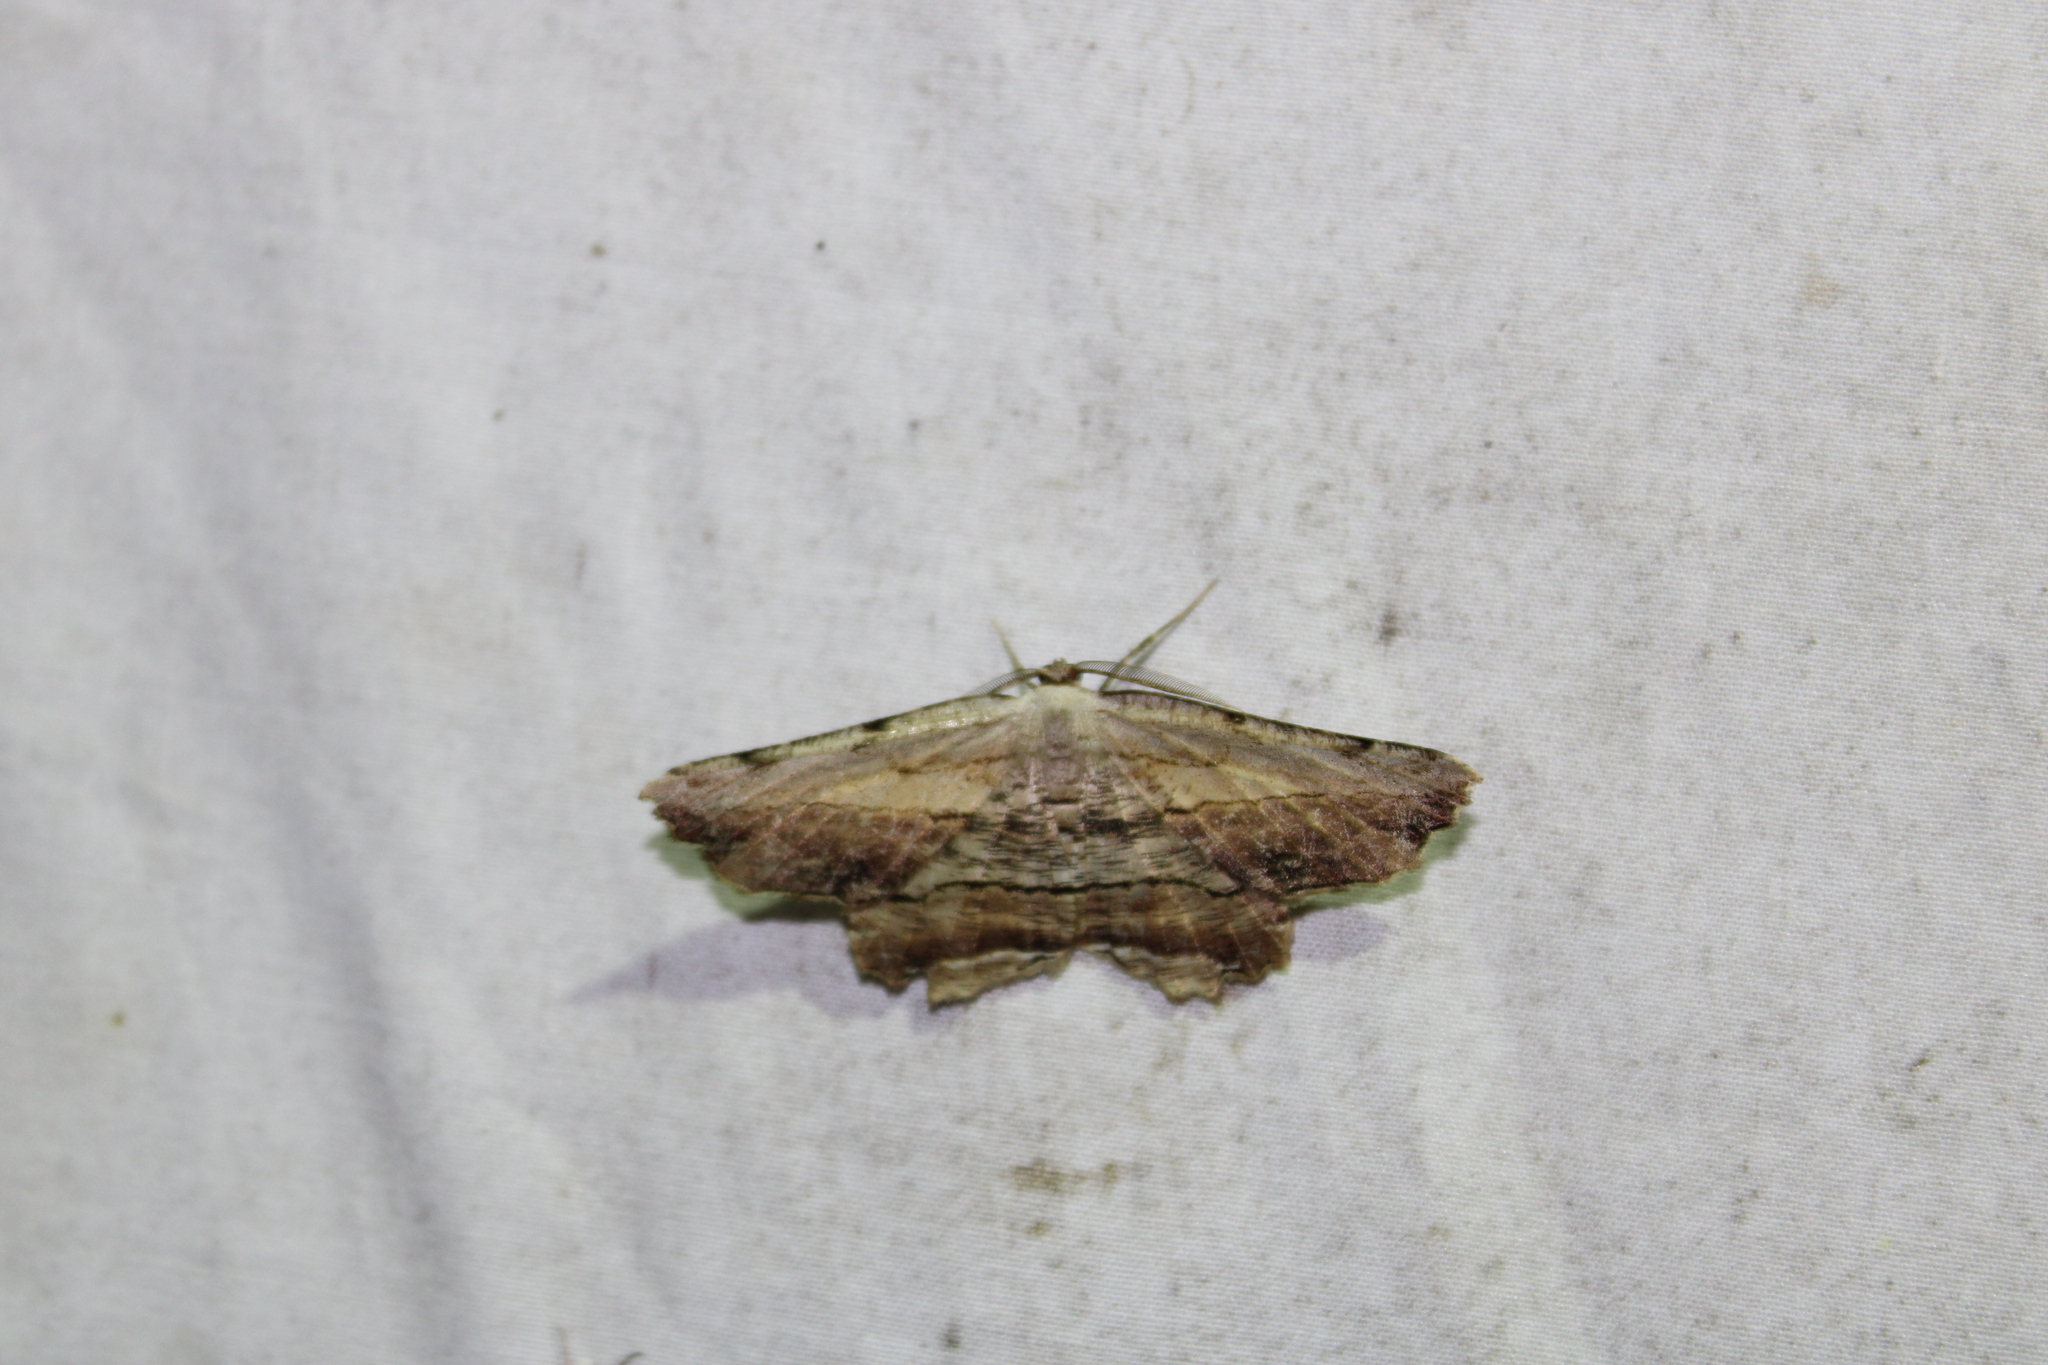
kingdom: Animalia
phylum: Arthropoda
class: Insecta
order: Lepidoptera
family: Geometridae
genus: Lytrosis
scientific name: Lytrosis unitaria
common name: Common lytrosis
